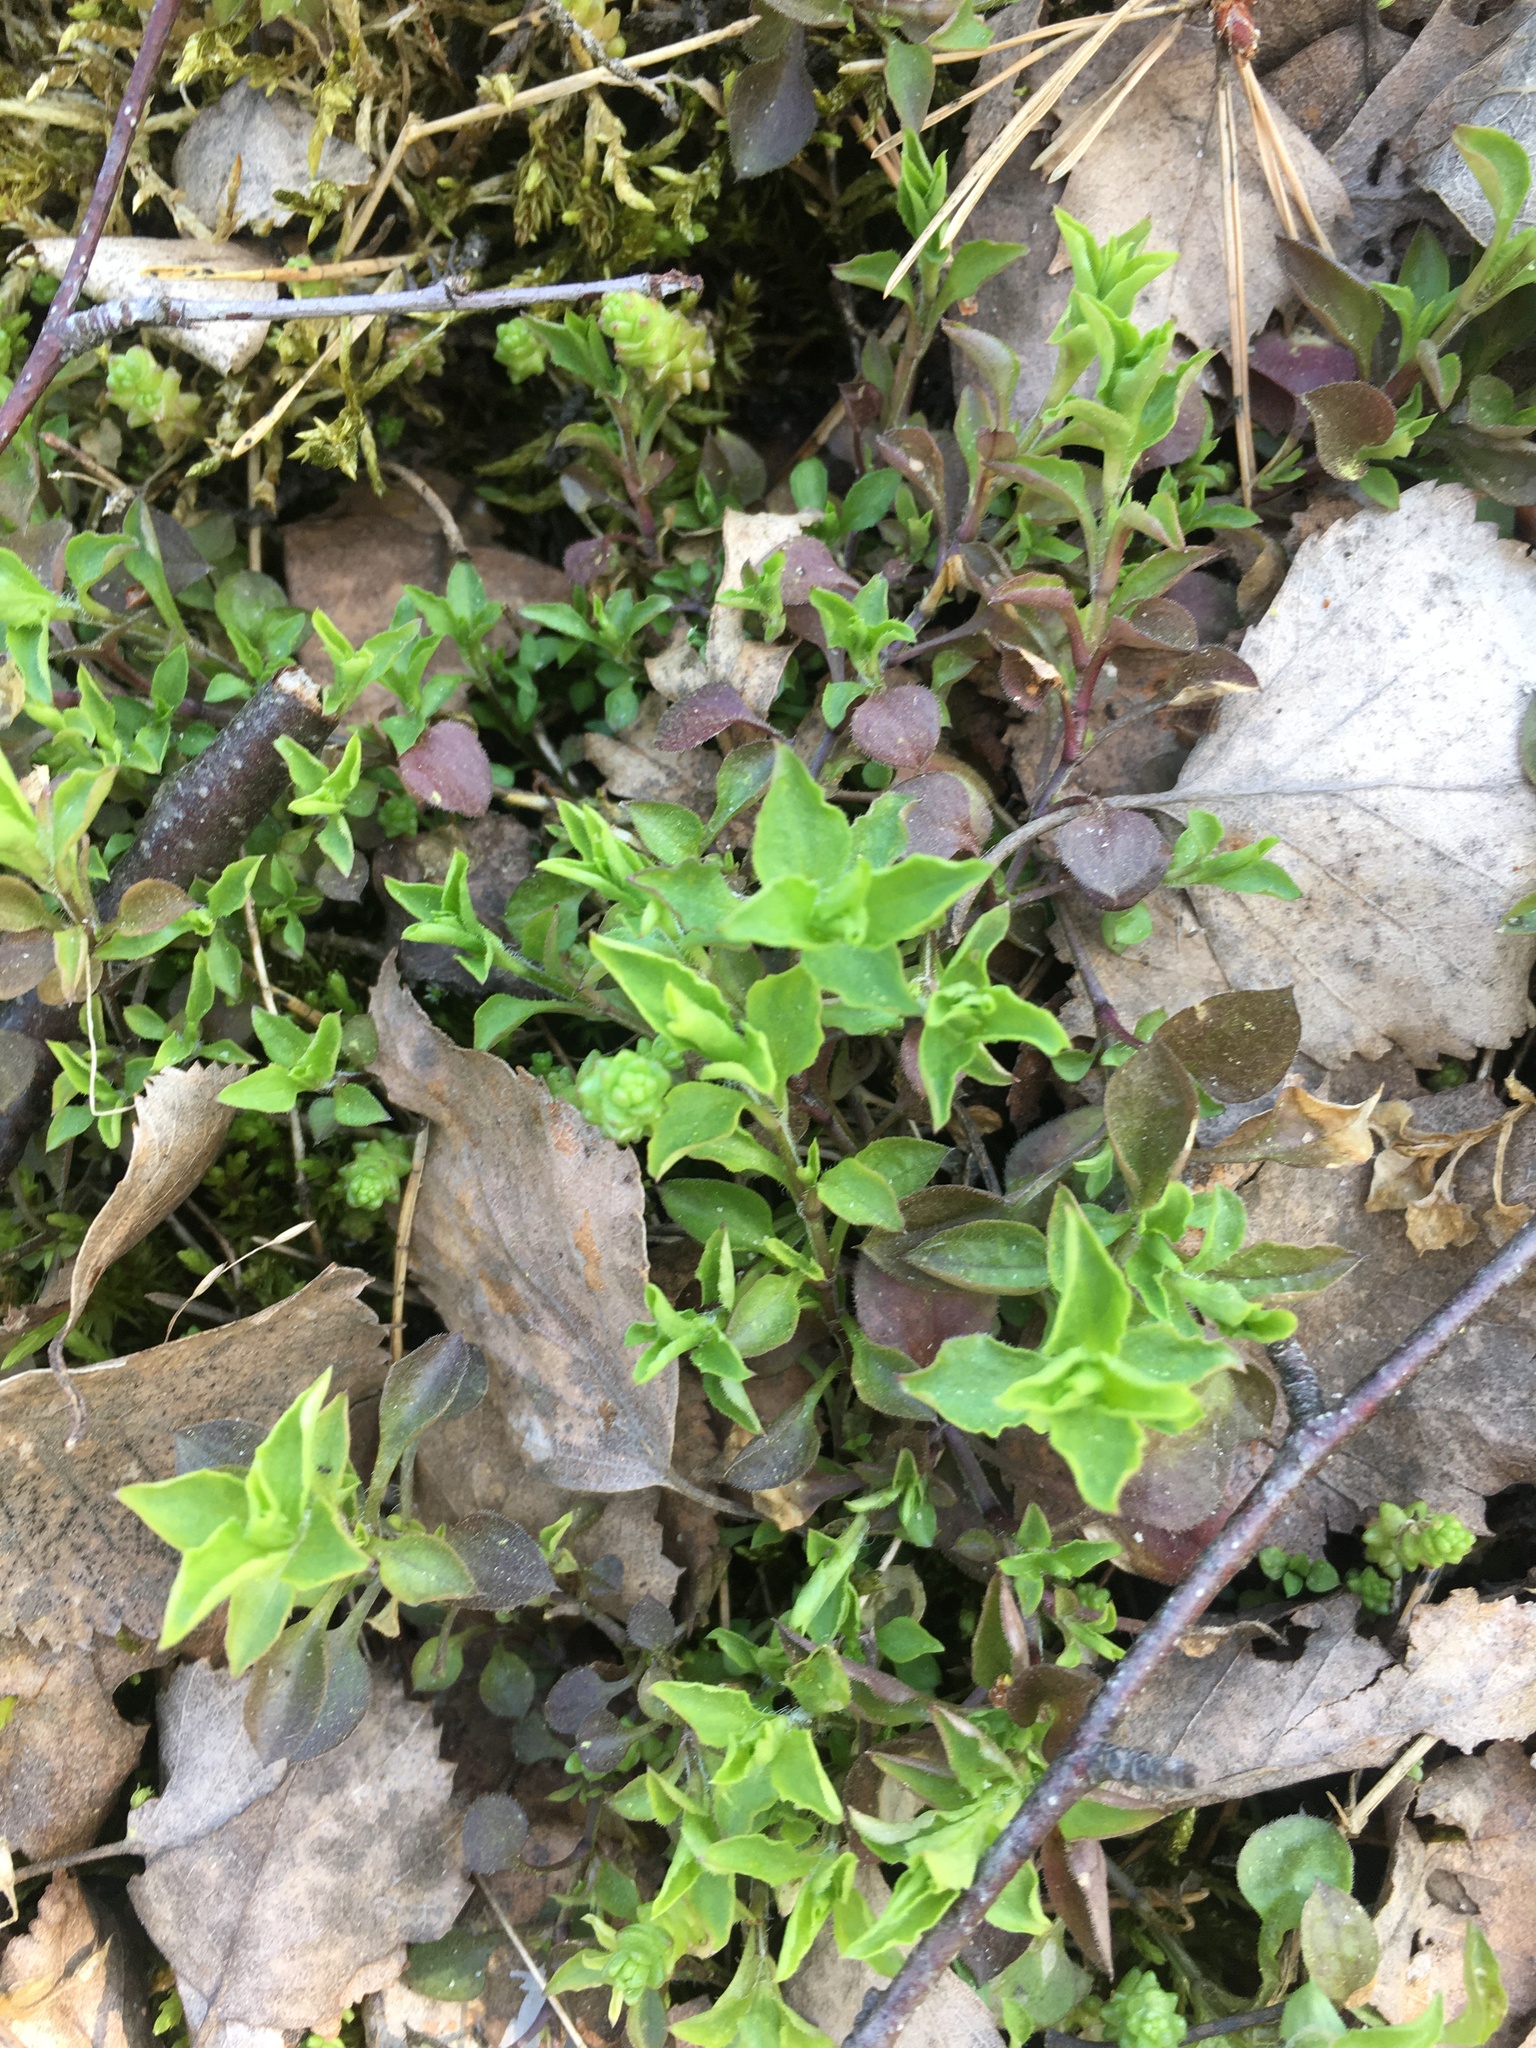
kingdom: Plantae
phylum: Tracheophyta
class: Magnoliopsida
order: Caryophyllales
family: Caryophyllaceae
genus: Moehringia
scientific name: Moehringia trinervia
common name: Three-nerved sandwort
